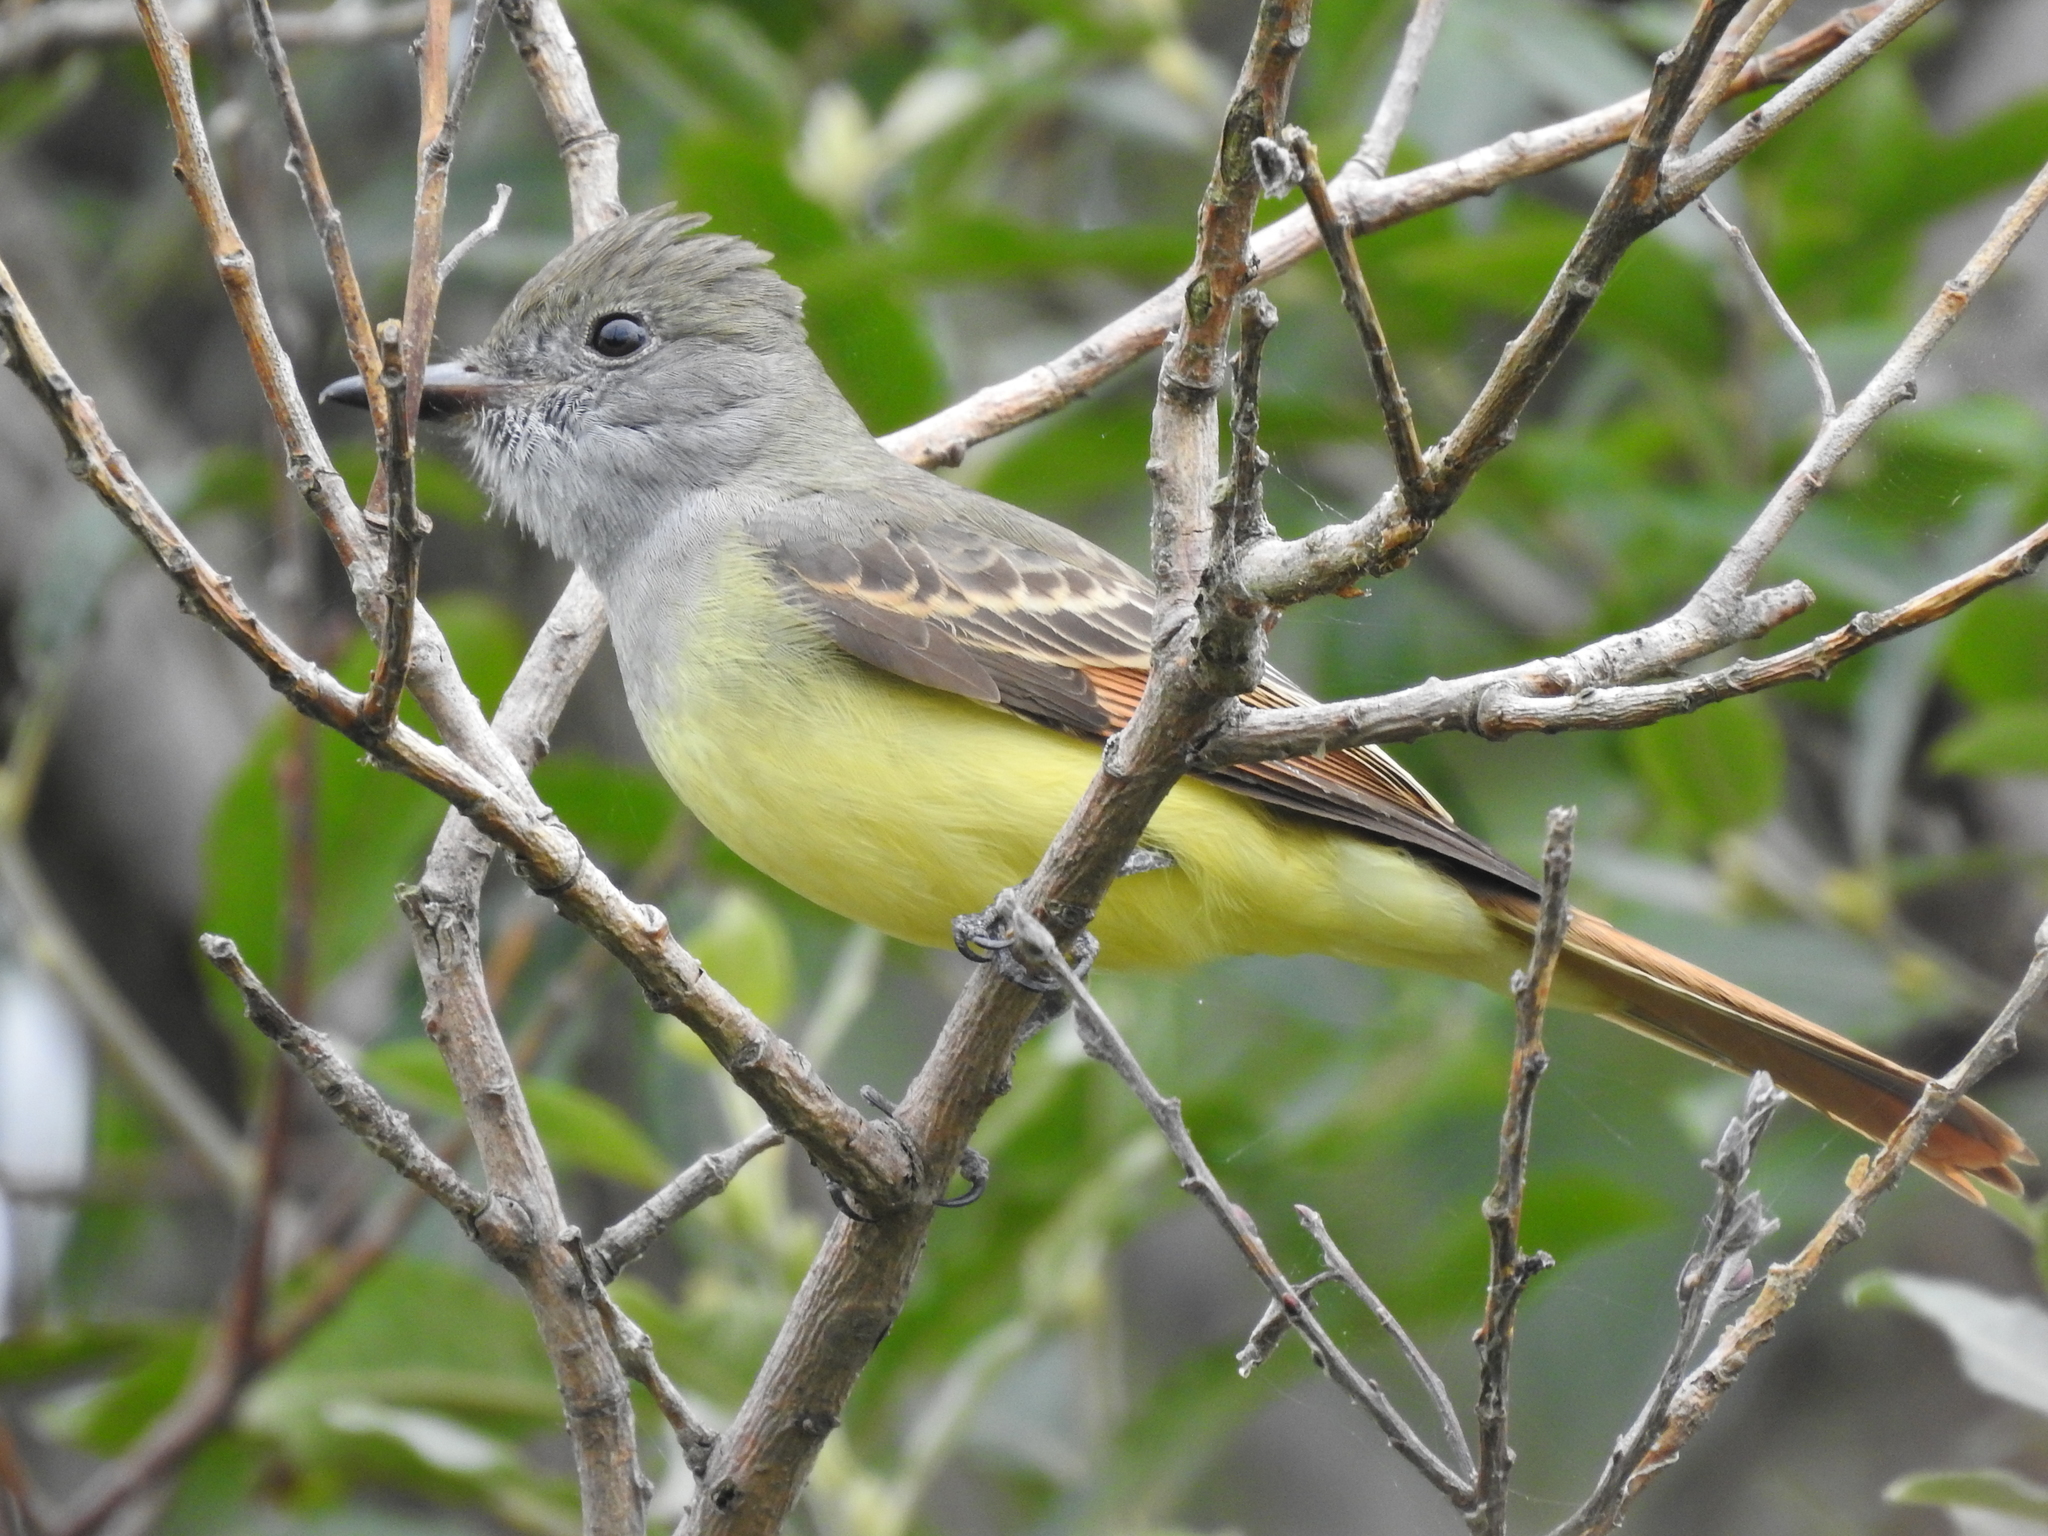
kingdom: Animalia
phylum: Chordata
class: Aves
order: Passeriformes
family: Tyrannidae
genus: Myiarchus
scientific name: Myiarchus crinitus
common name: Great crested flycatcher
